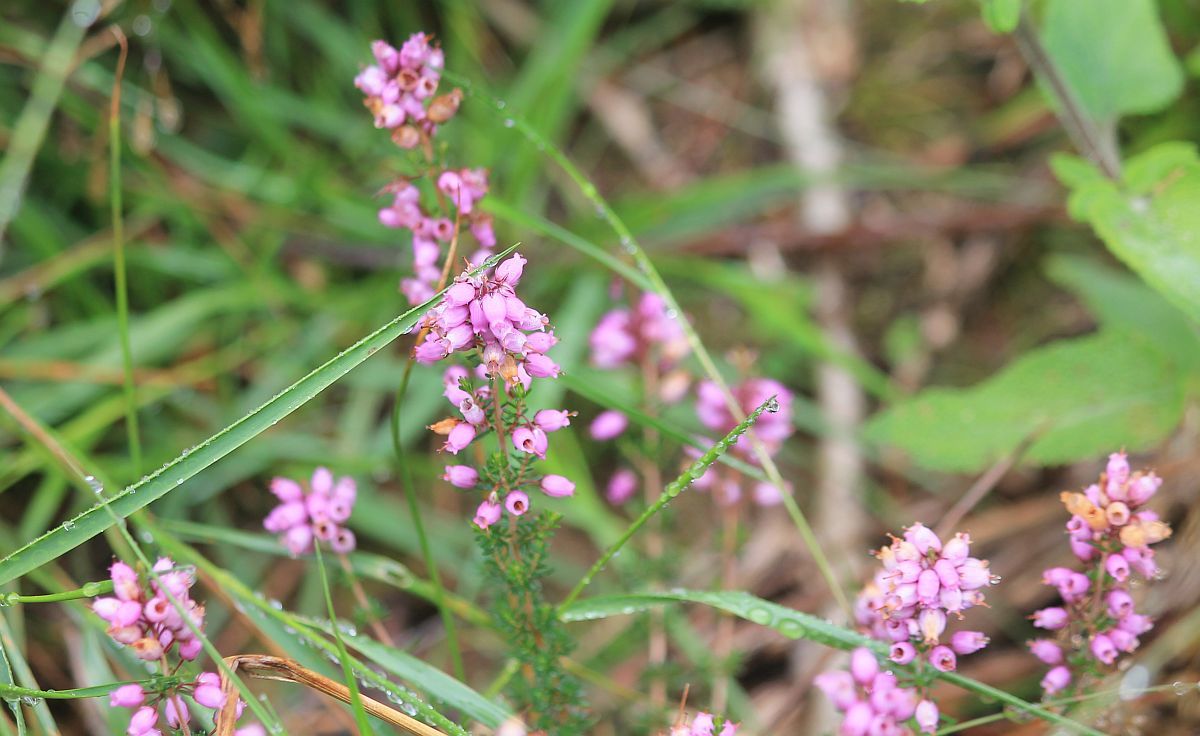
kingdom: Plantae
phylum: Tracheophyta
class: Magnoliopsida
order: Ericales
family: Ericaceae
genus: Erica
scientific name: Erica cinerea
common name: Bell heather
